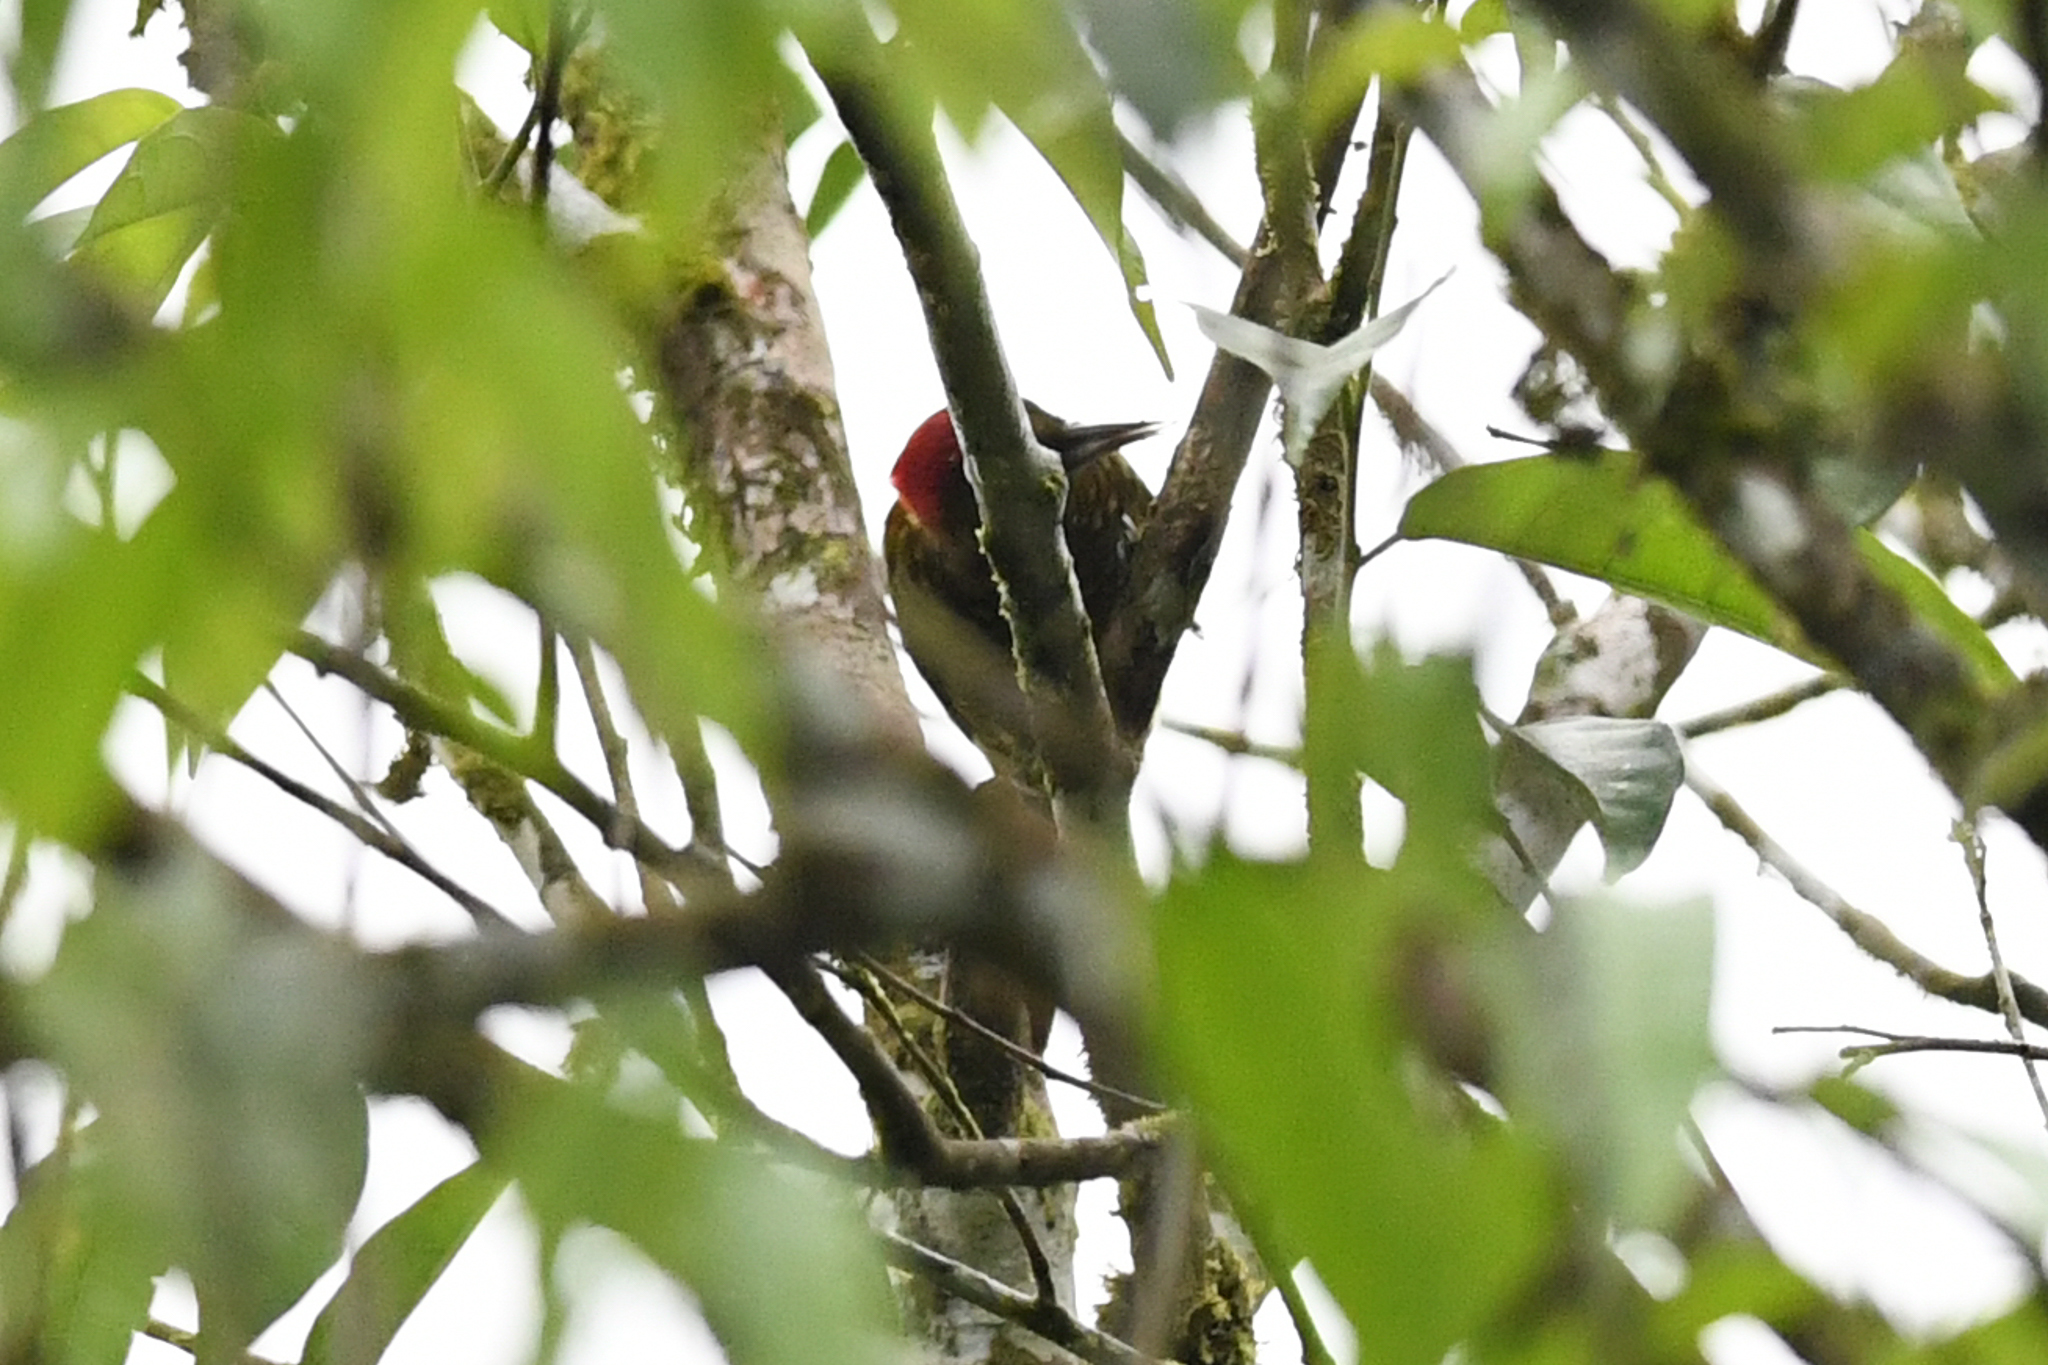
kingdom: Animalia
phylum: Chordata
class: Aves
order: Piciformes
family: Picidae
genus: Piculus
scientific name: Piculus simplex
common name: Rufous-winged woodpecker
